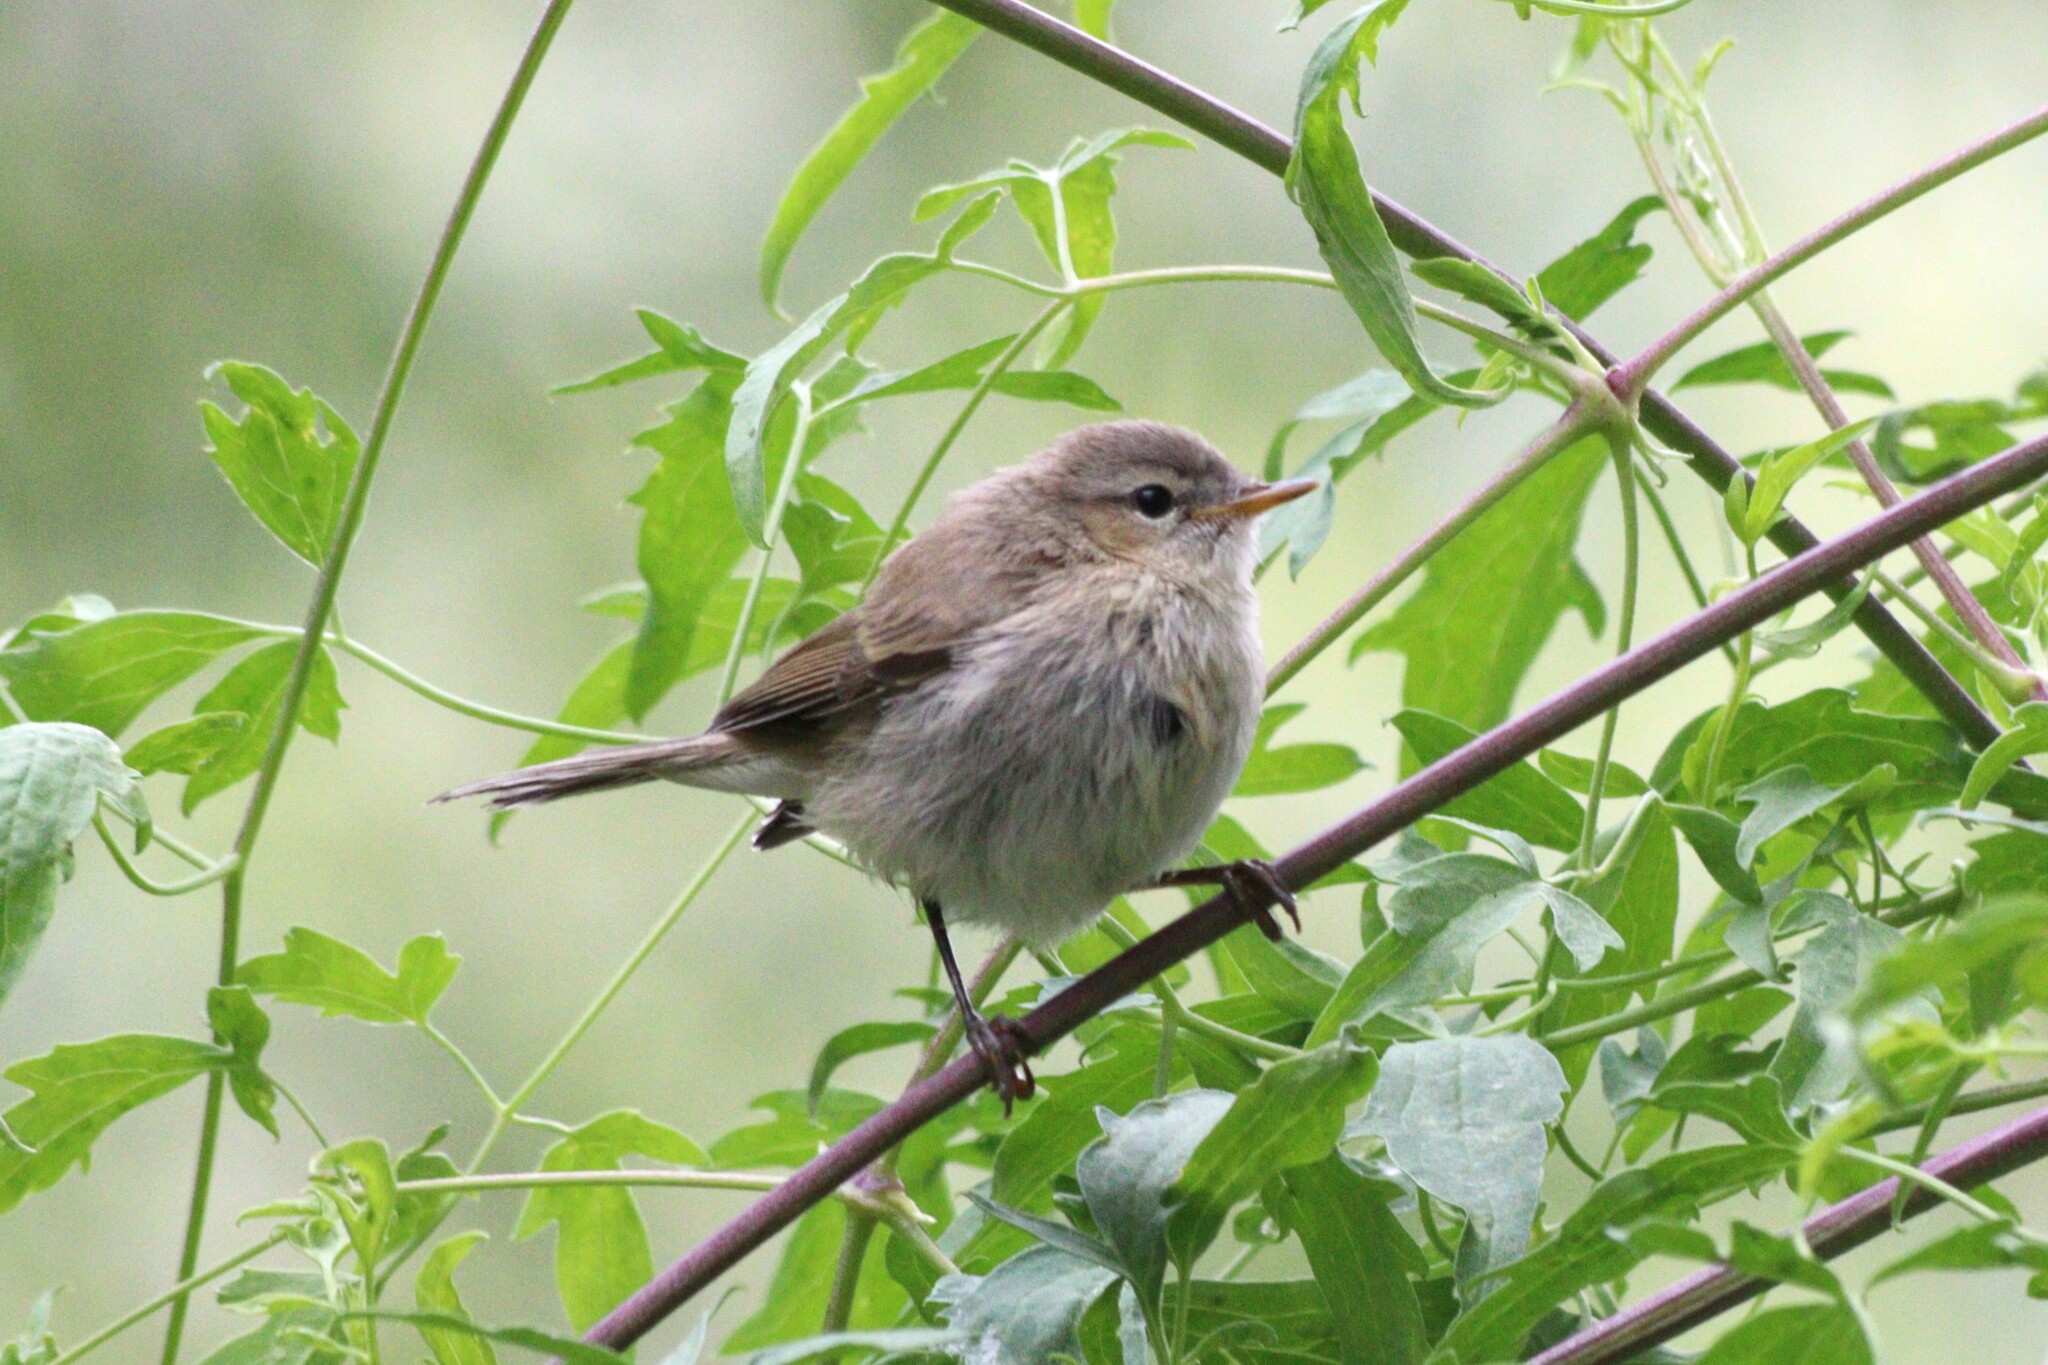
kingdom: Animalia
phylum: Chordata
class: Aves
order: Passeriformes
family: Phylloscopidae
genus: Phylloscopus
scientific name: Phylloscopus sindianus
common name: Mountain chiffchaff
